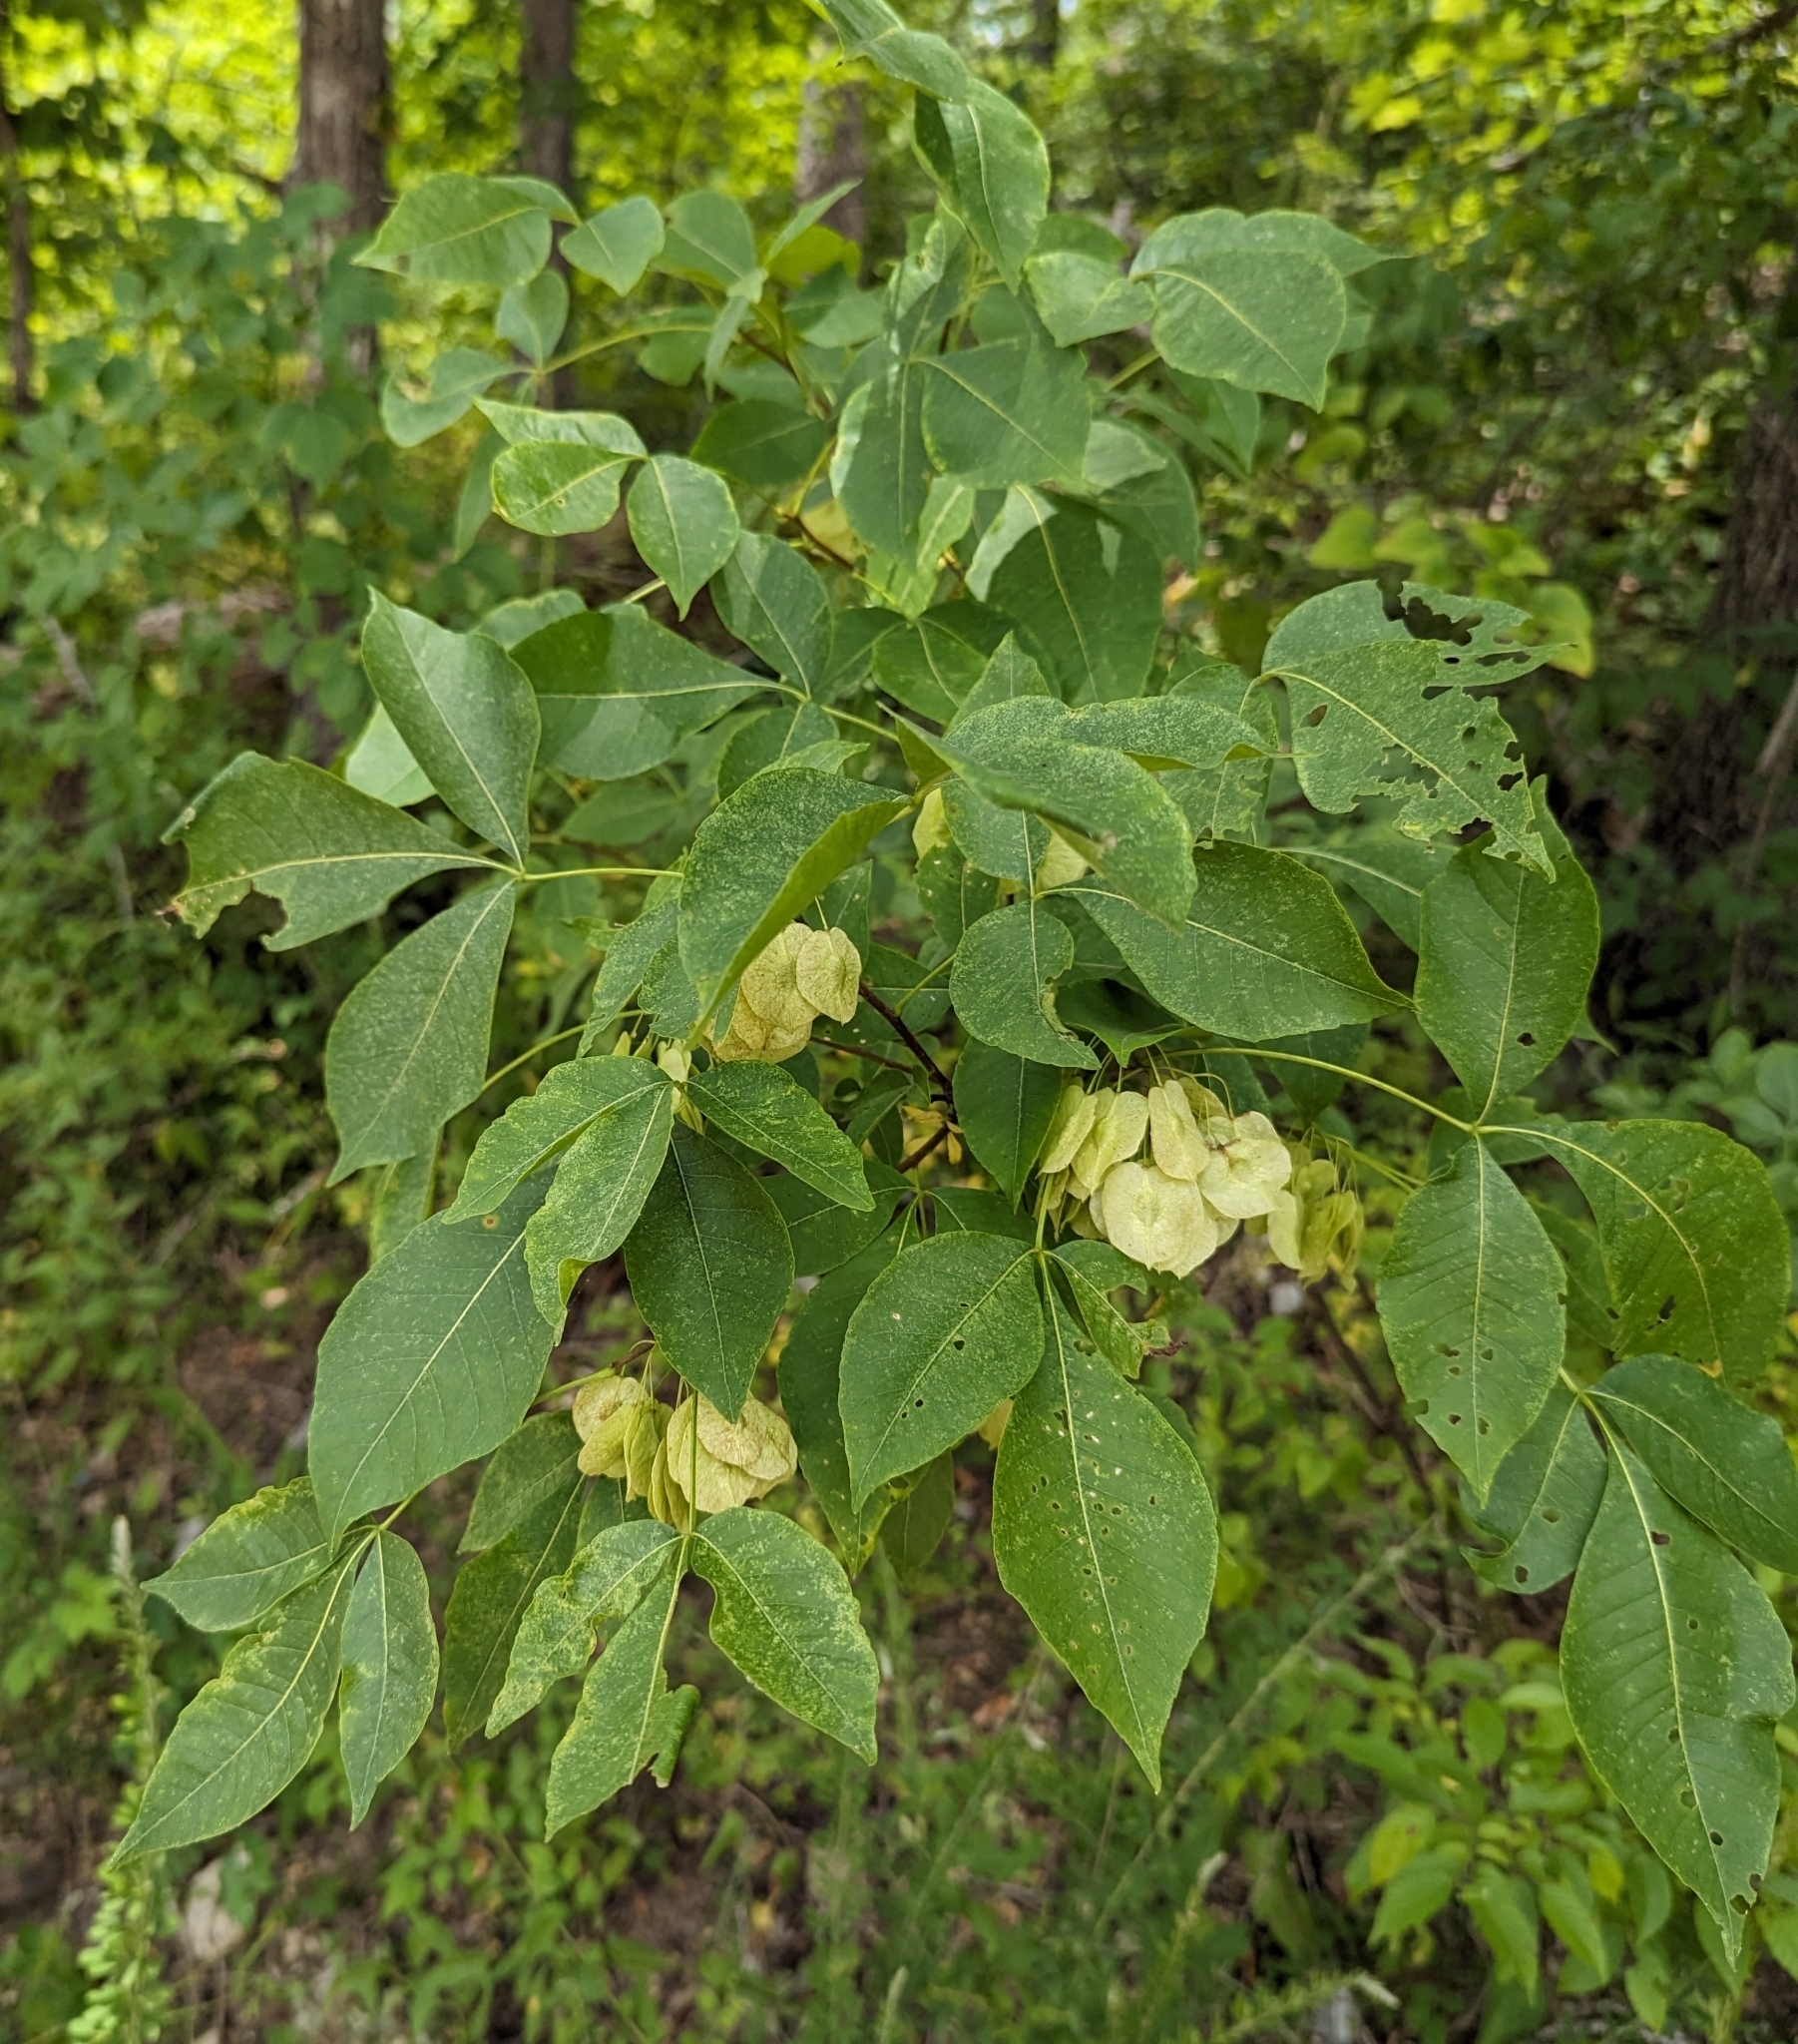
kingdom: Plantae
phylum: Tracheophyta
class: Magnoliopsida
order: Sapindales
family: Rutaceae
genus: Ptelea
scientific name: Ptelea trifoliata
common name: Common hop-tree
